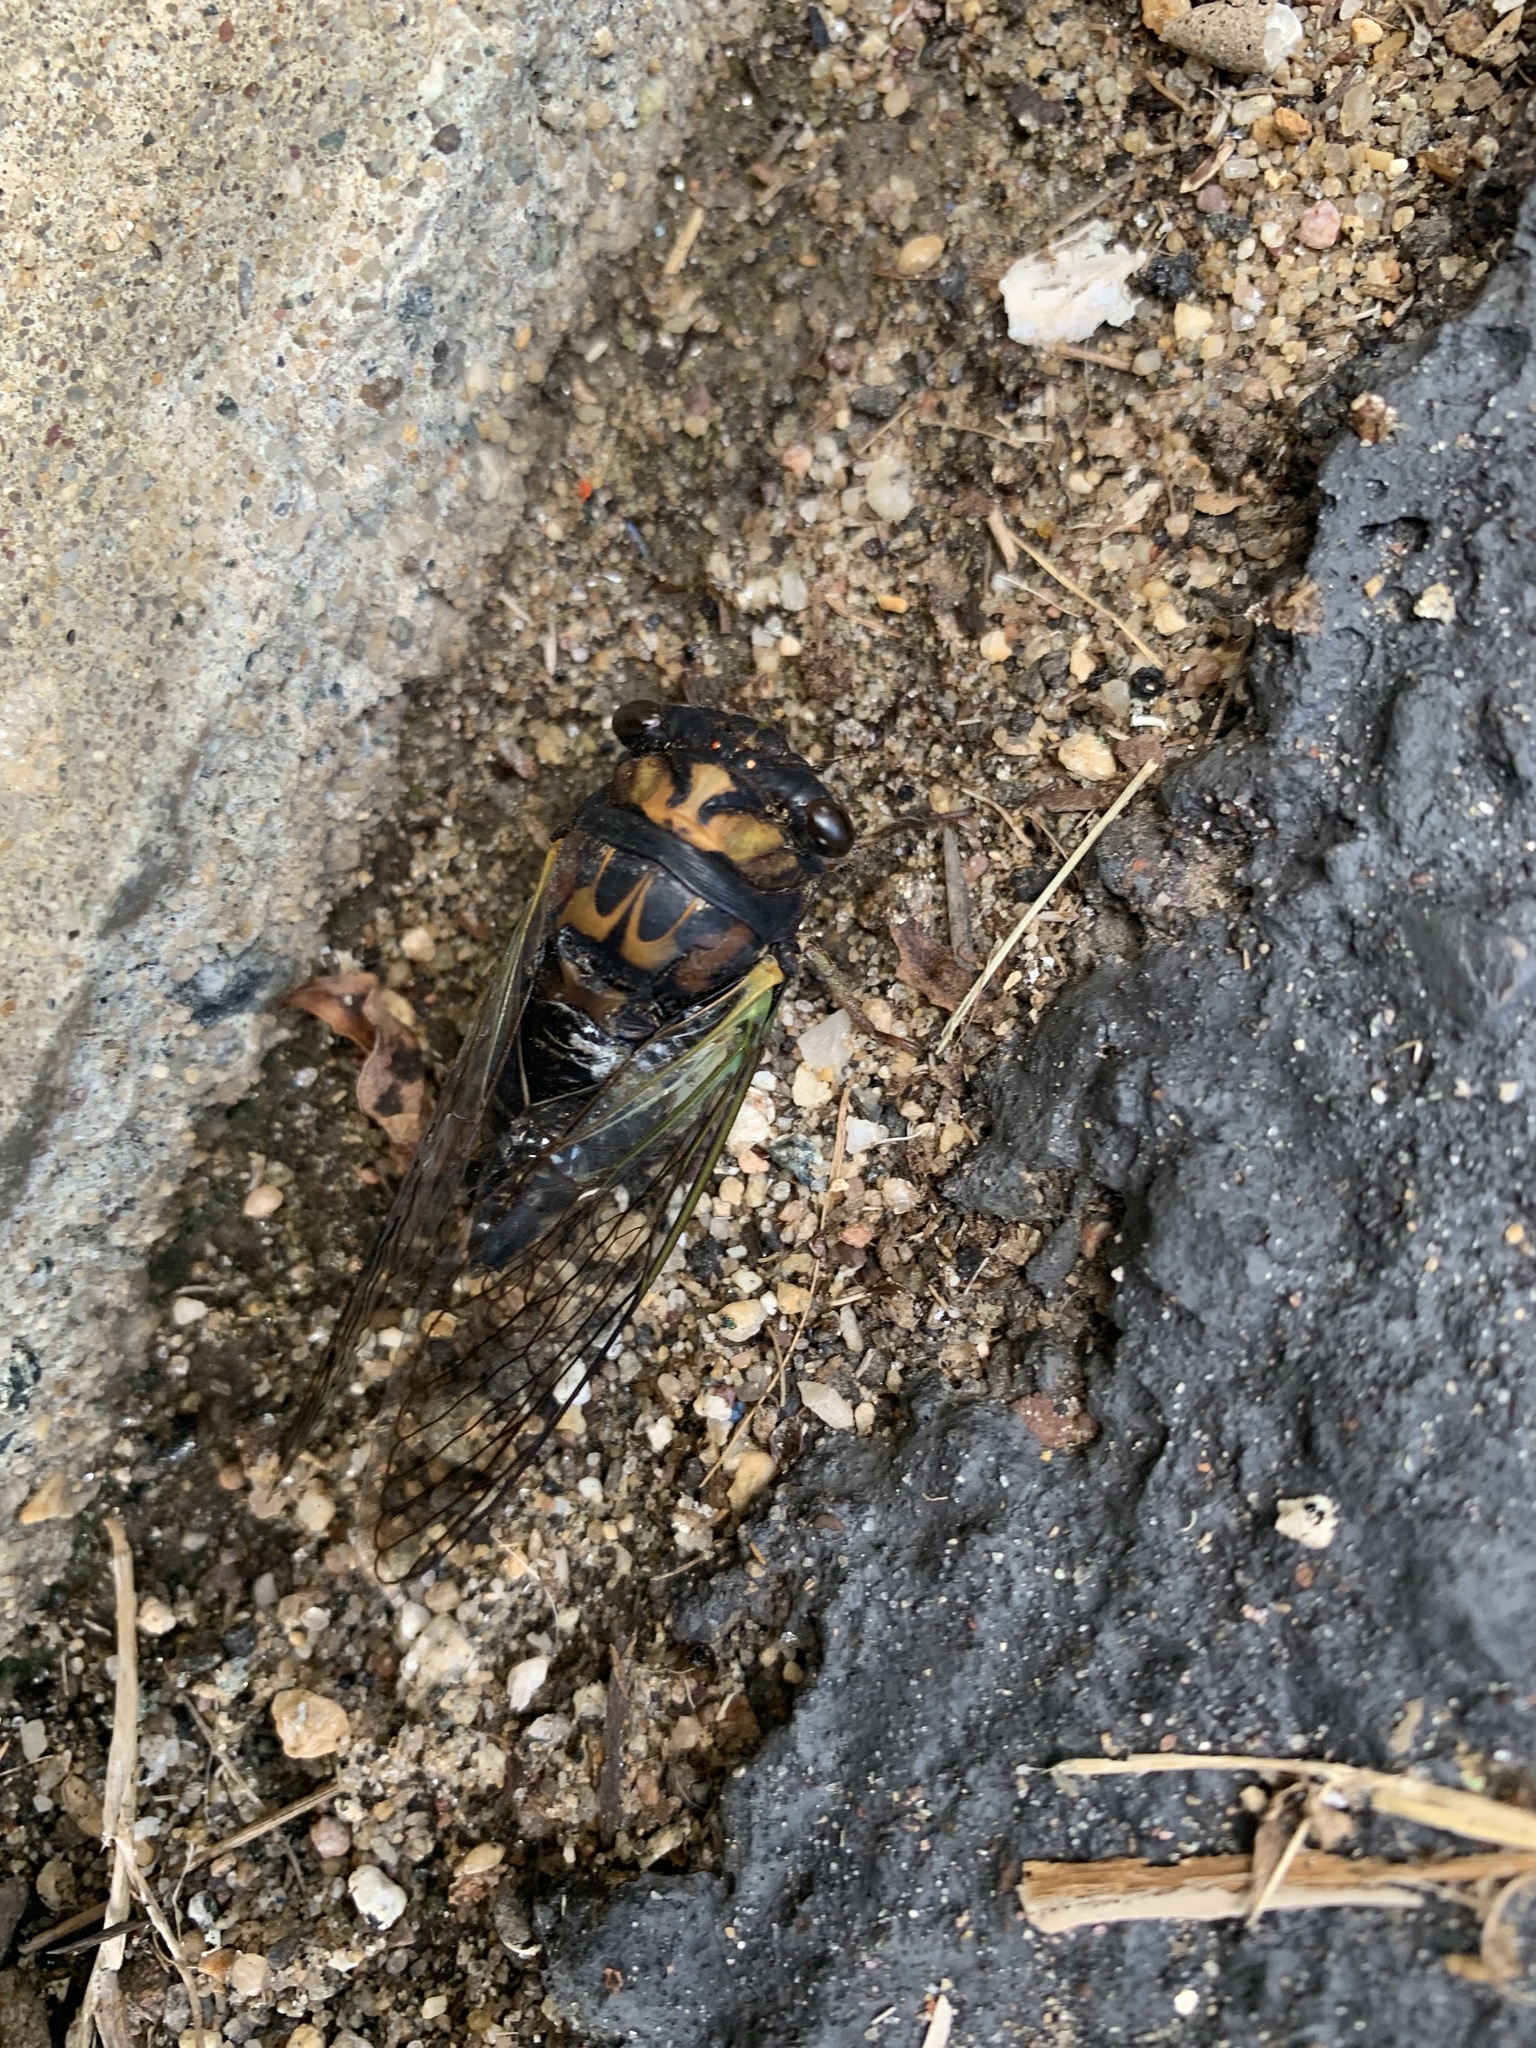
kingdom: Animalia
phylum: Arthropoda
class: Insecta
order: Hemiptera
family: Cicadidae
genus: Neotibicen
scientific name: Neotibicen lyricen
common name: Lyric cicada
